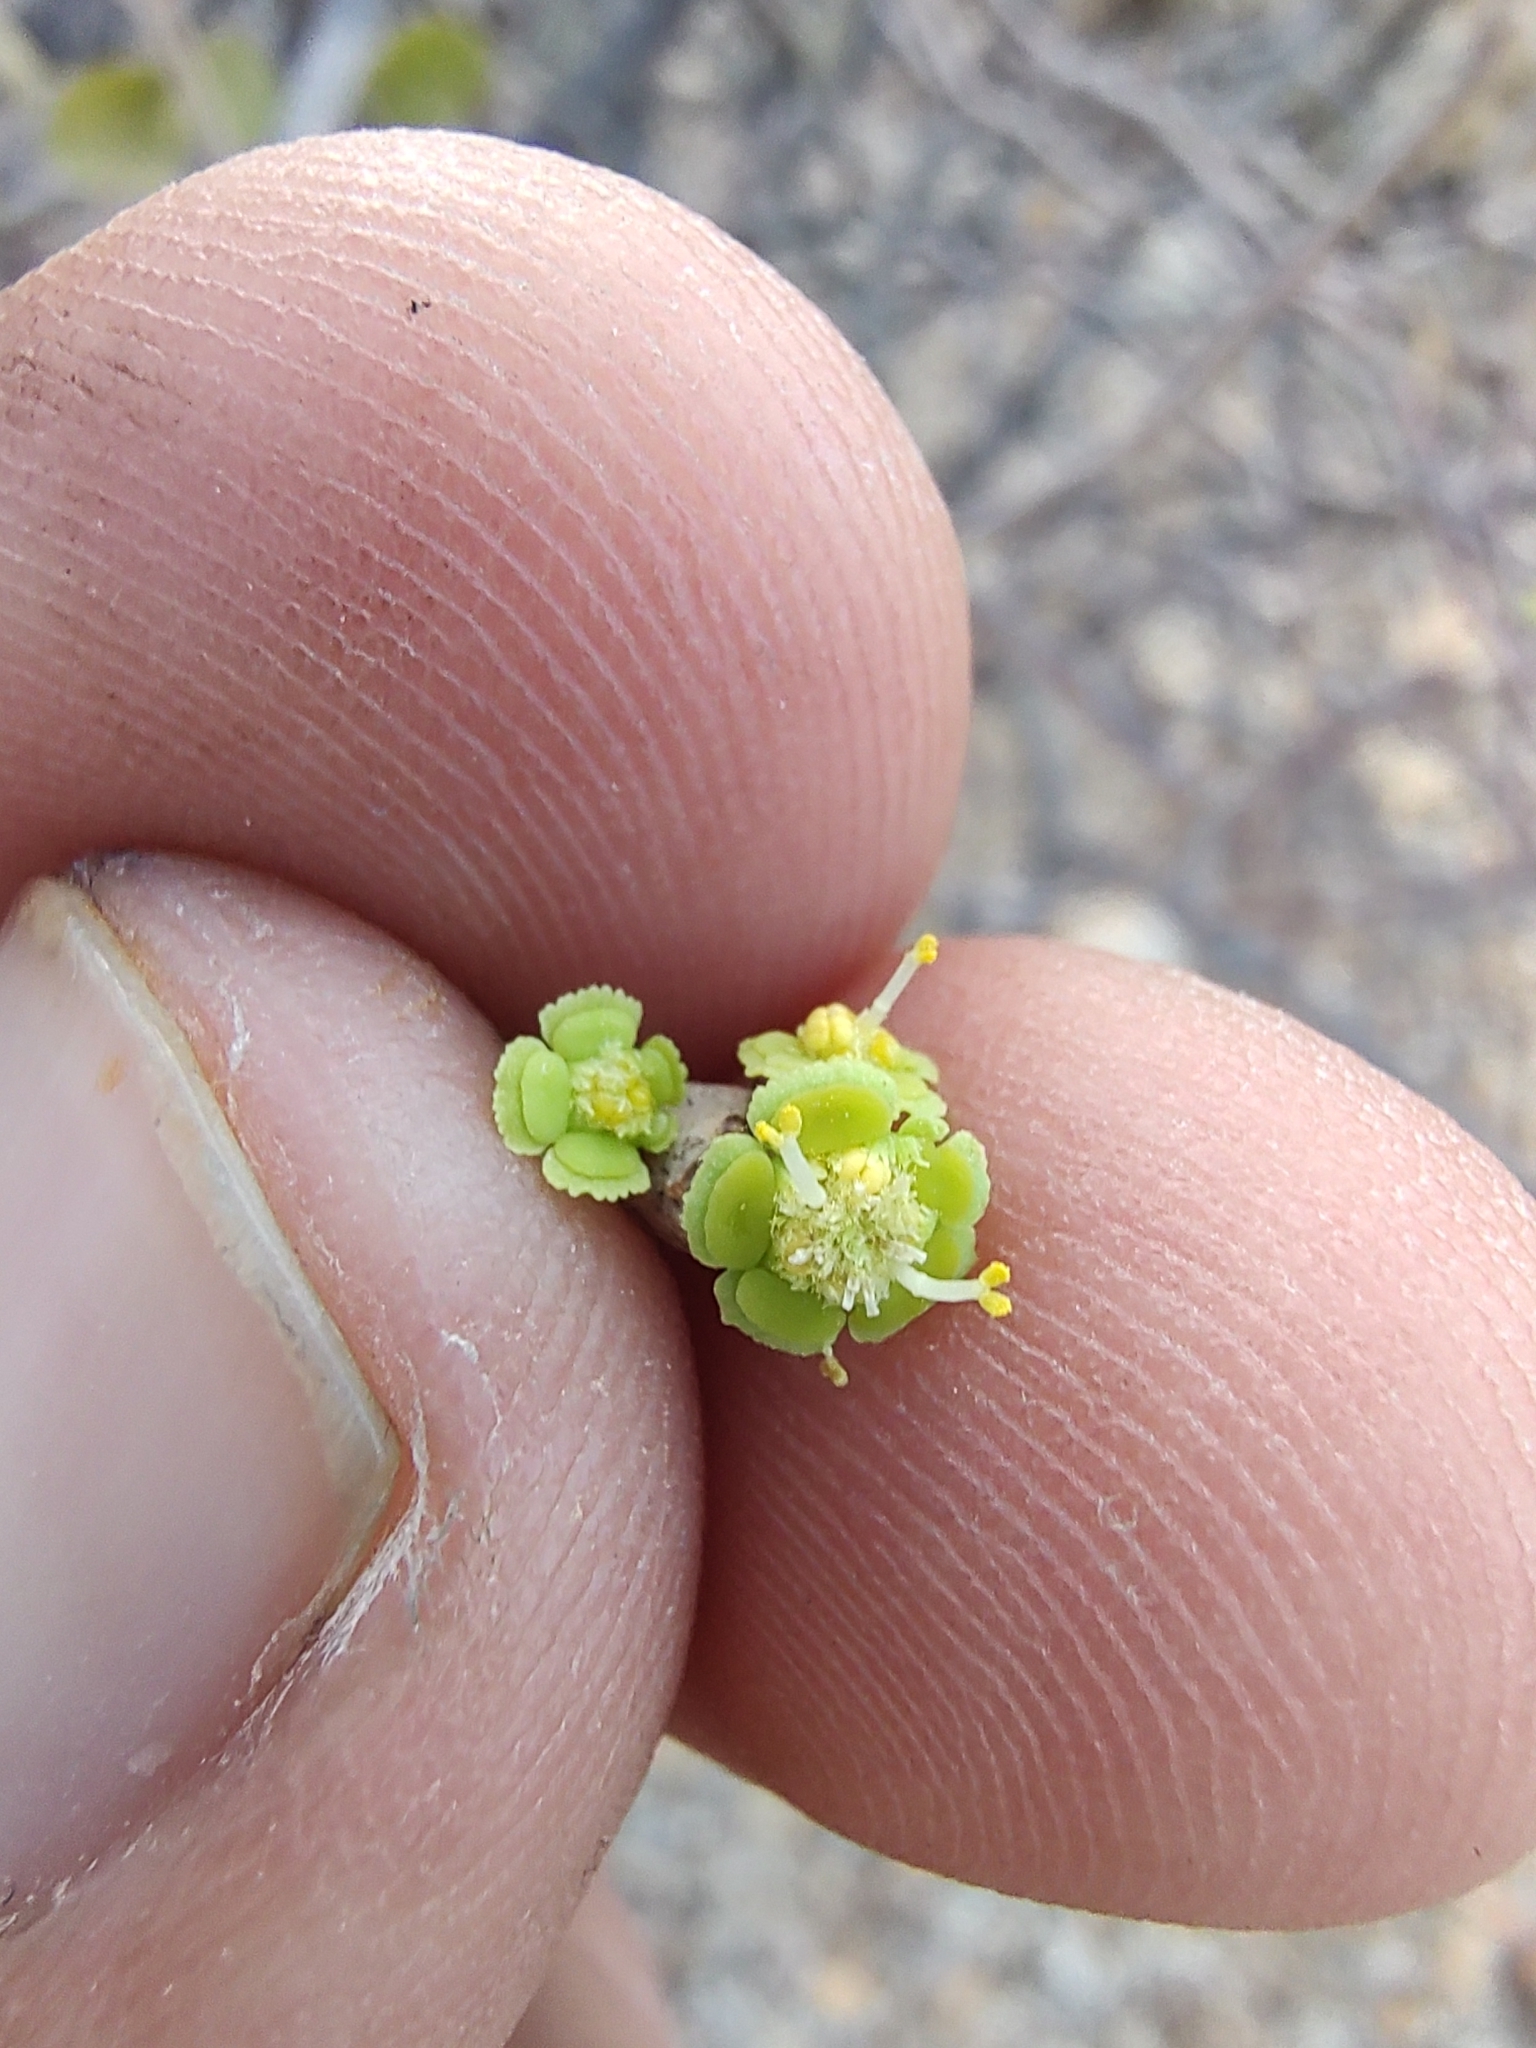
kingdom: Plantae
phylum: Tracheophyta
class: Magnoliopsida
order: Malpighiales
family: Euphorbiaceae
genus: Euphorbia
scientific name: Euphorbia californica
